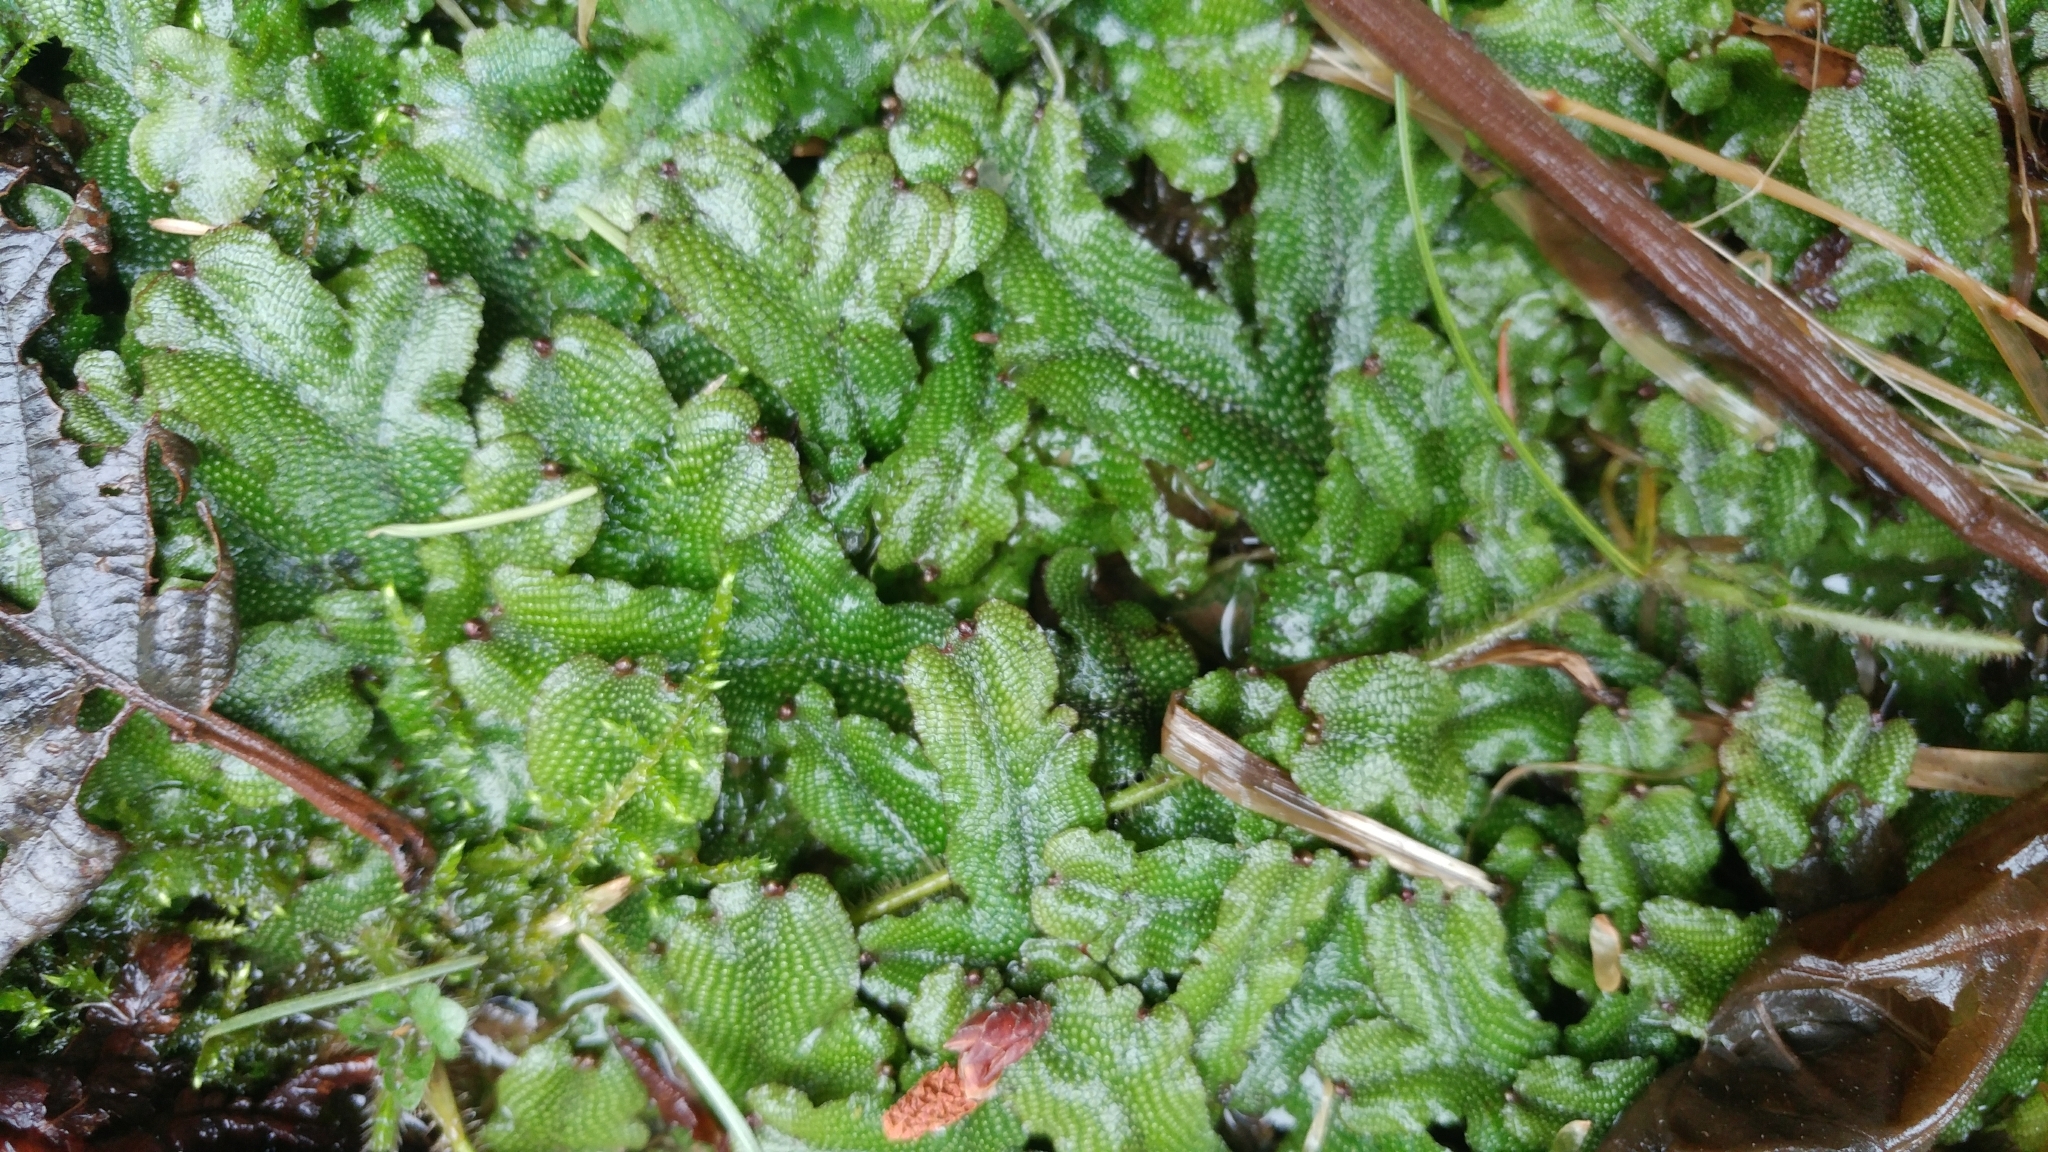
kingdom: Plantae
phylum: Marchantiophyta
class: Marchantiopsida
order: Marchantiales
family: Conocephalaceae
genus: Conocephalum
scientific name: Conocephalum salebrosum
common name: Cat-tongue liverwort
